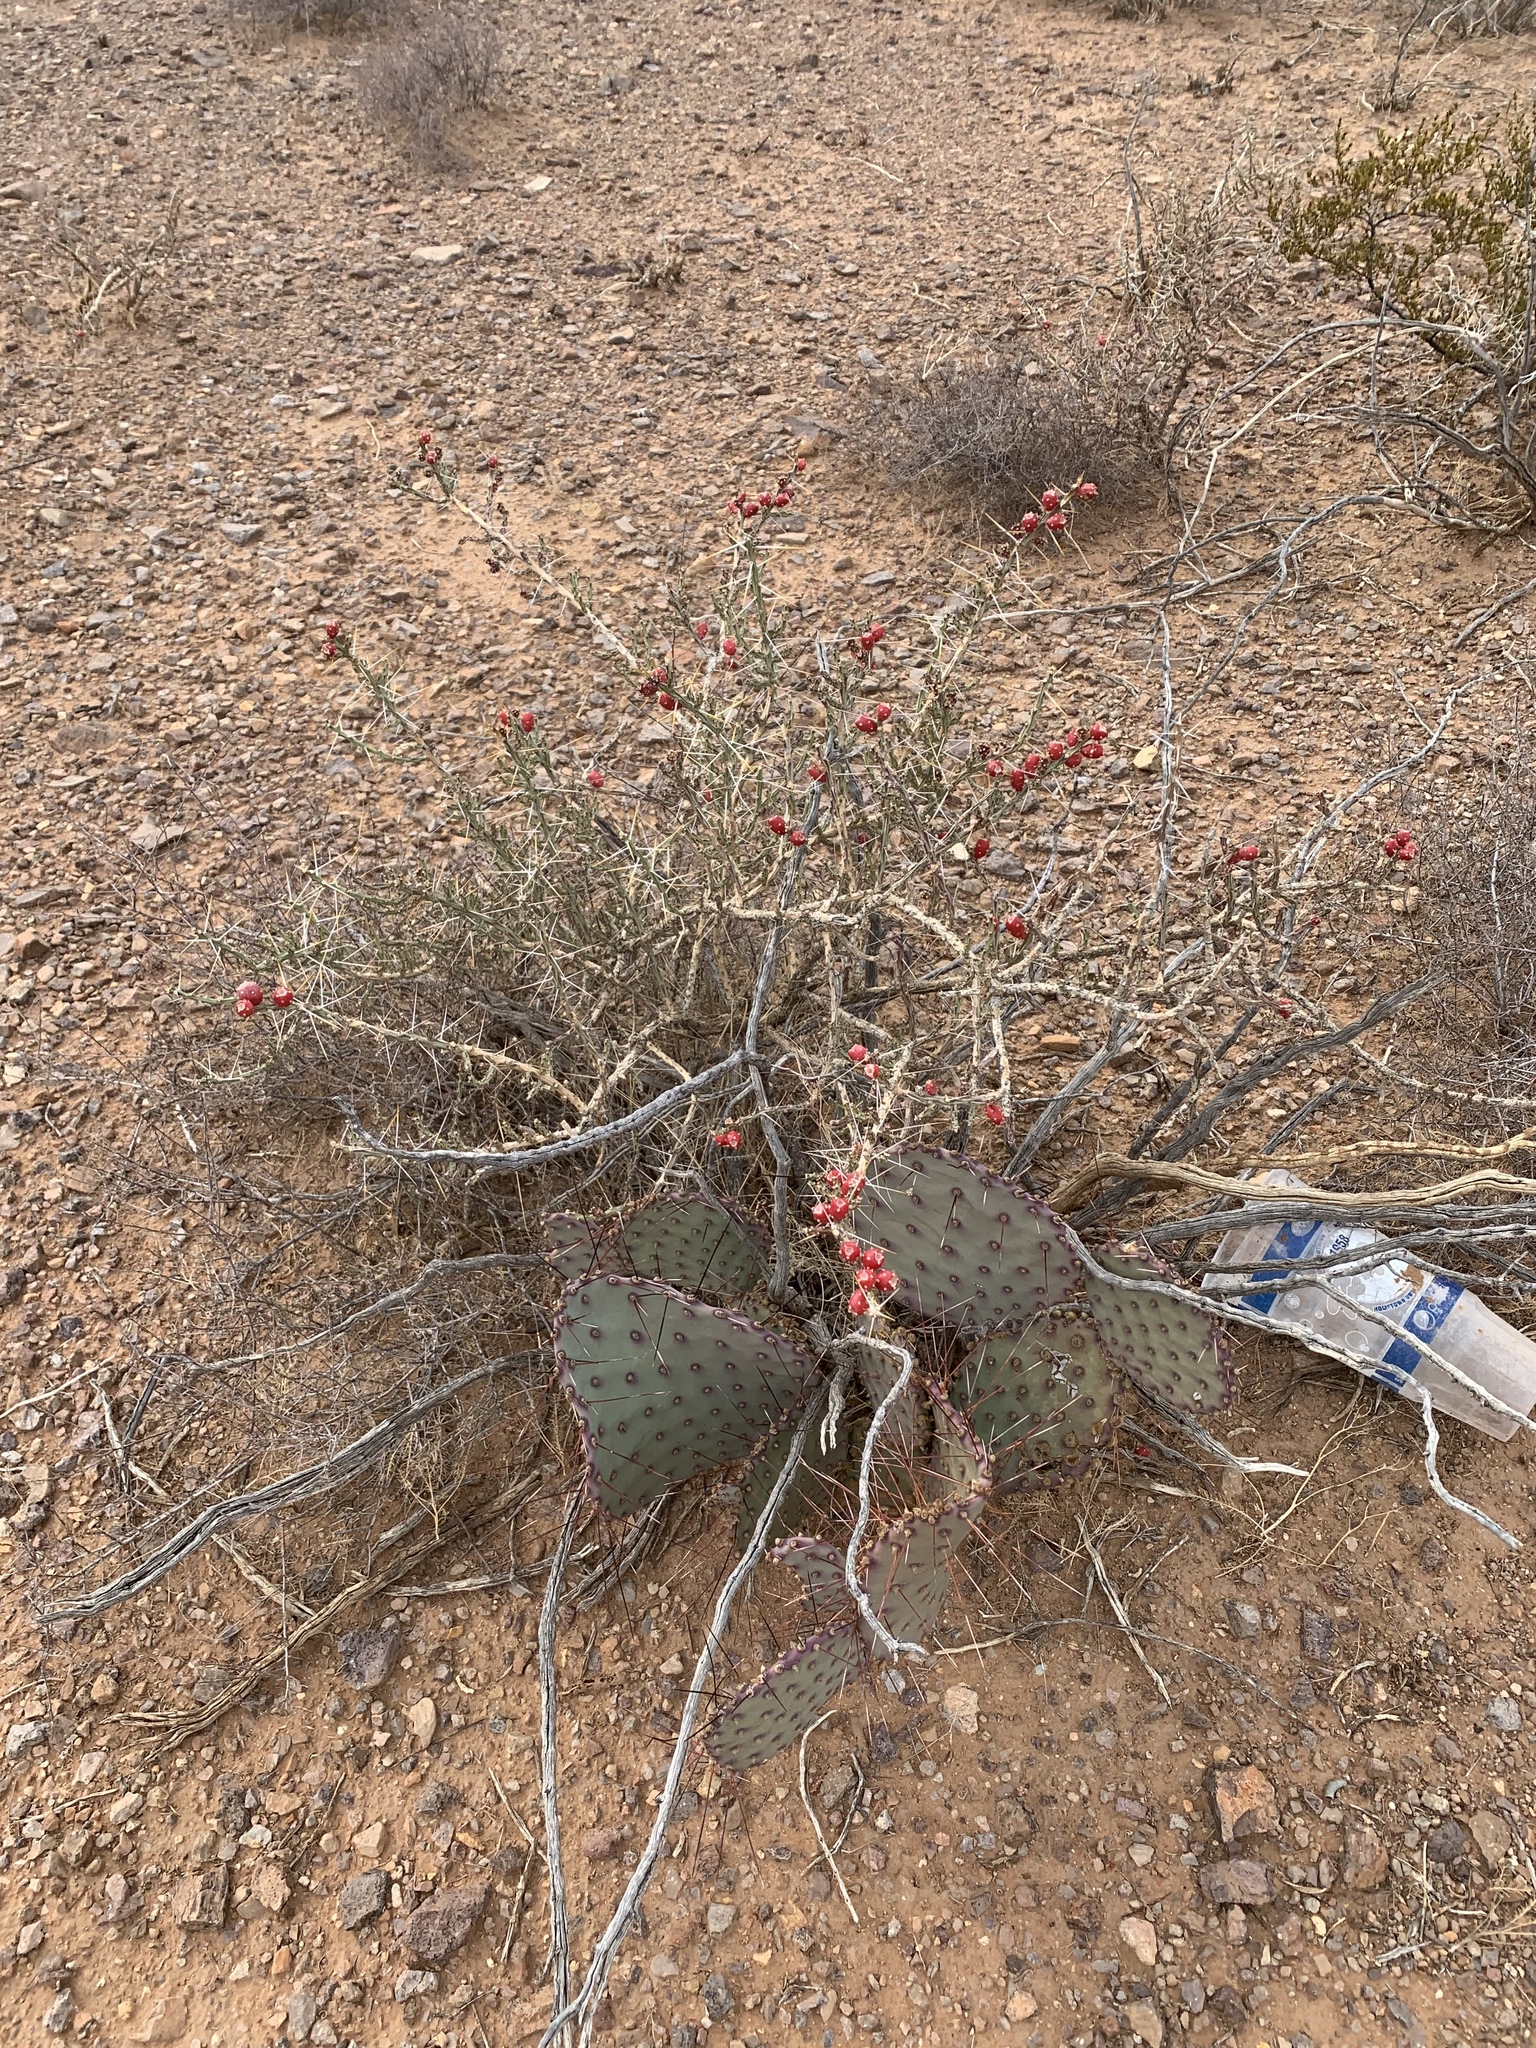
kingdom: Plantae
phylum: Tracheophyta
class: Magnoliopsida
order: Caryophyllales
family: Cactaceae
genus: Opuntia
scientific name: Opuntia macrocentra
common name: Purple prickly-pear
